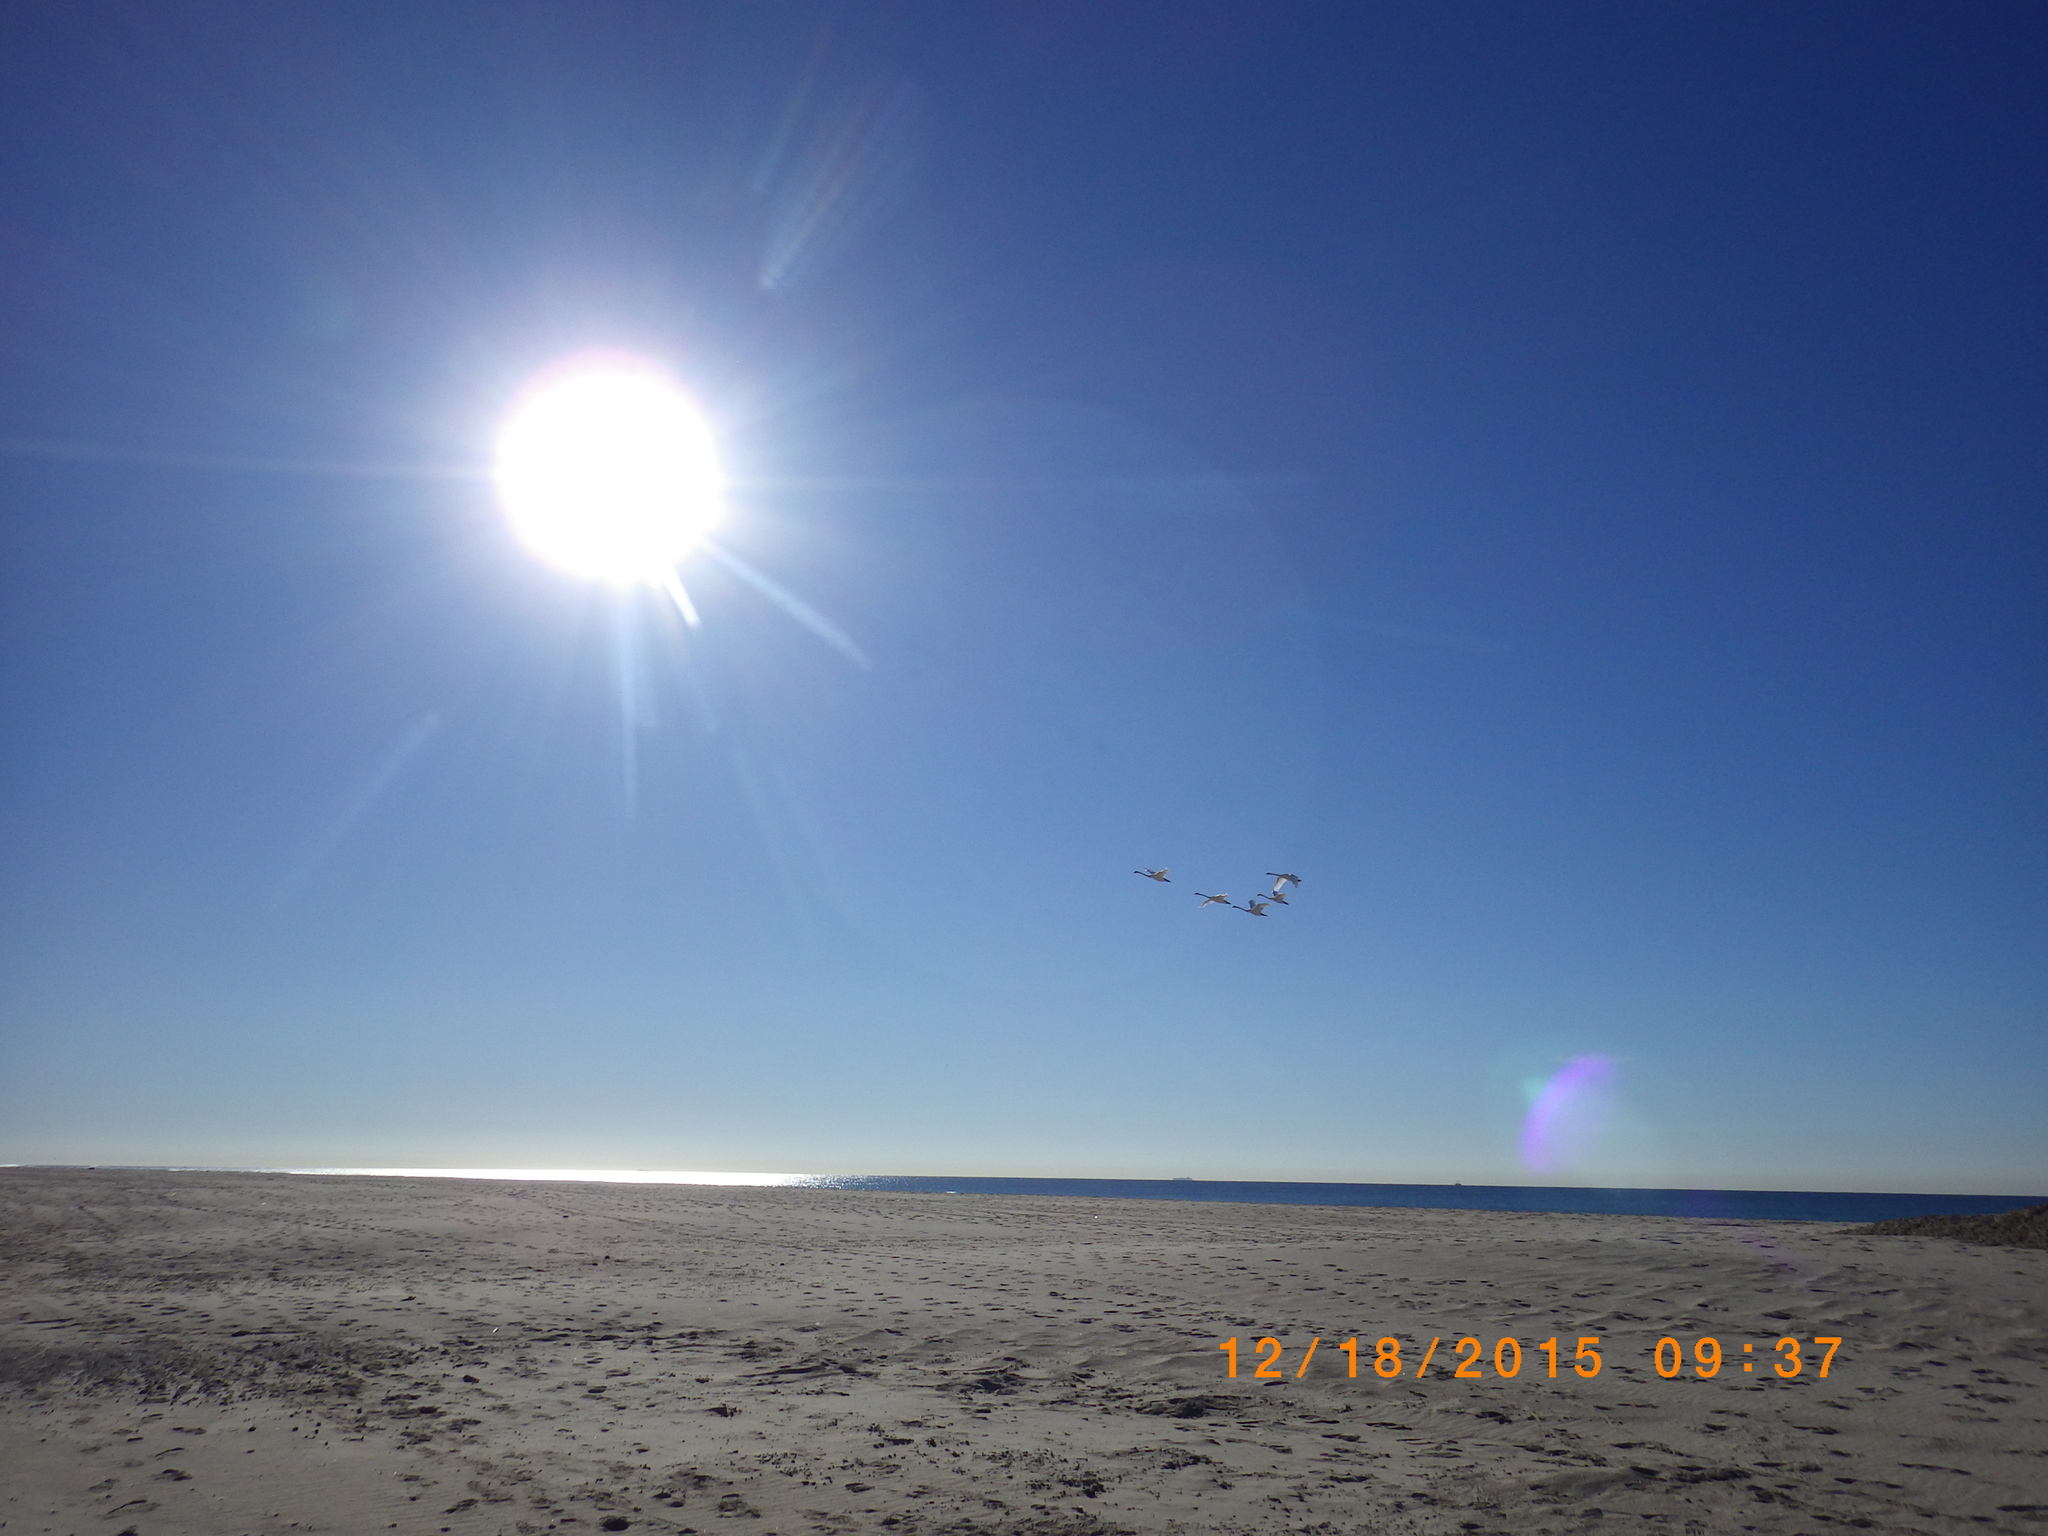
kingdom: Animalia
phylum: Chordata
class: Aves
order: Anseriformes
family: Anatidae
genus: Cygnus
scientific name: Cygnus columbianus
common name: Tundra swan
